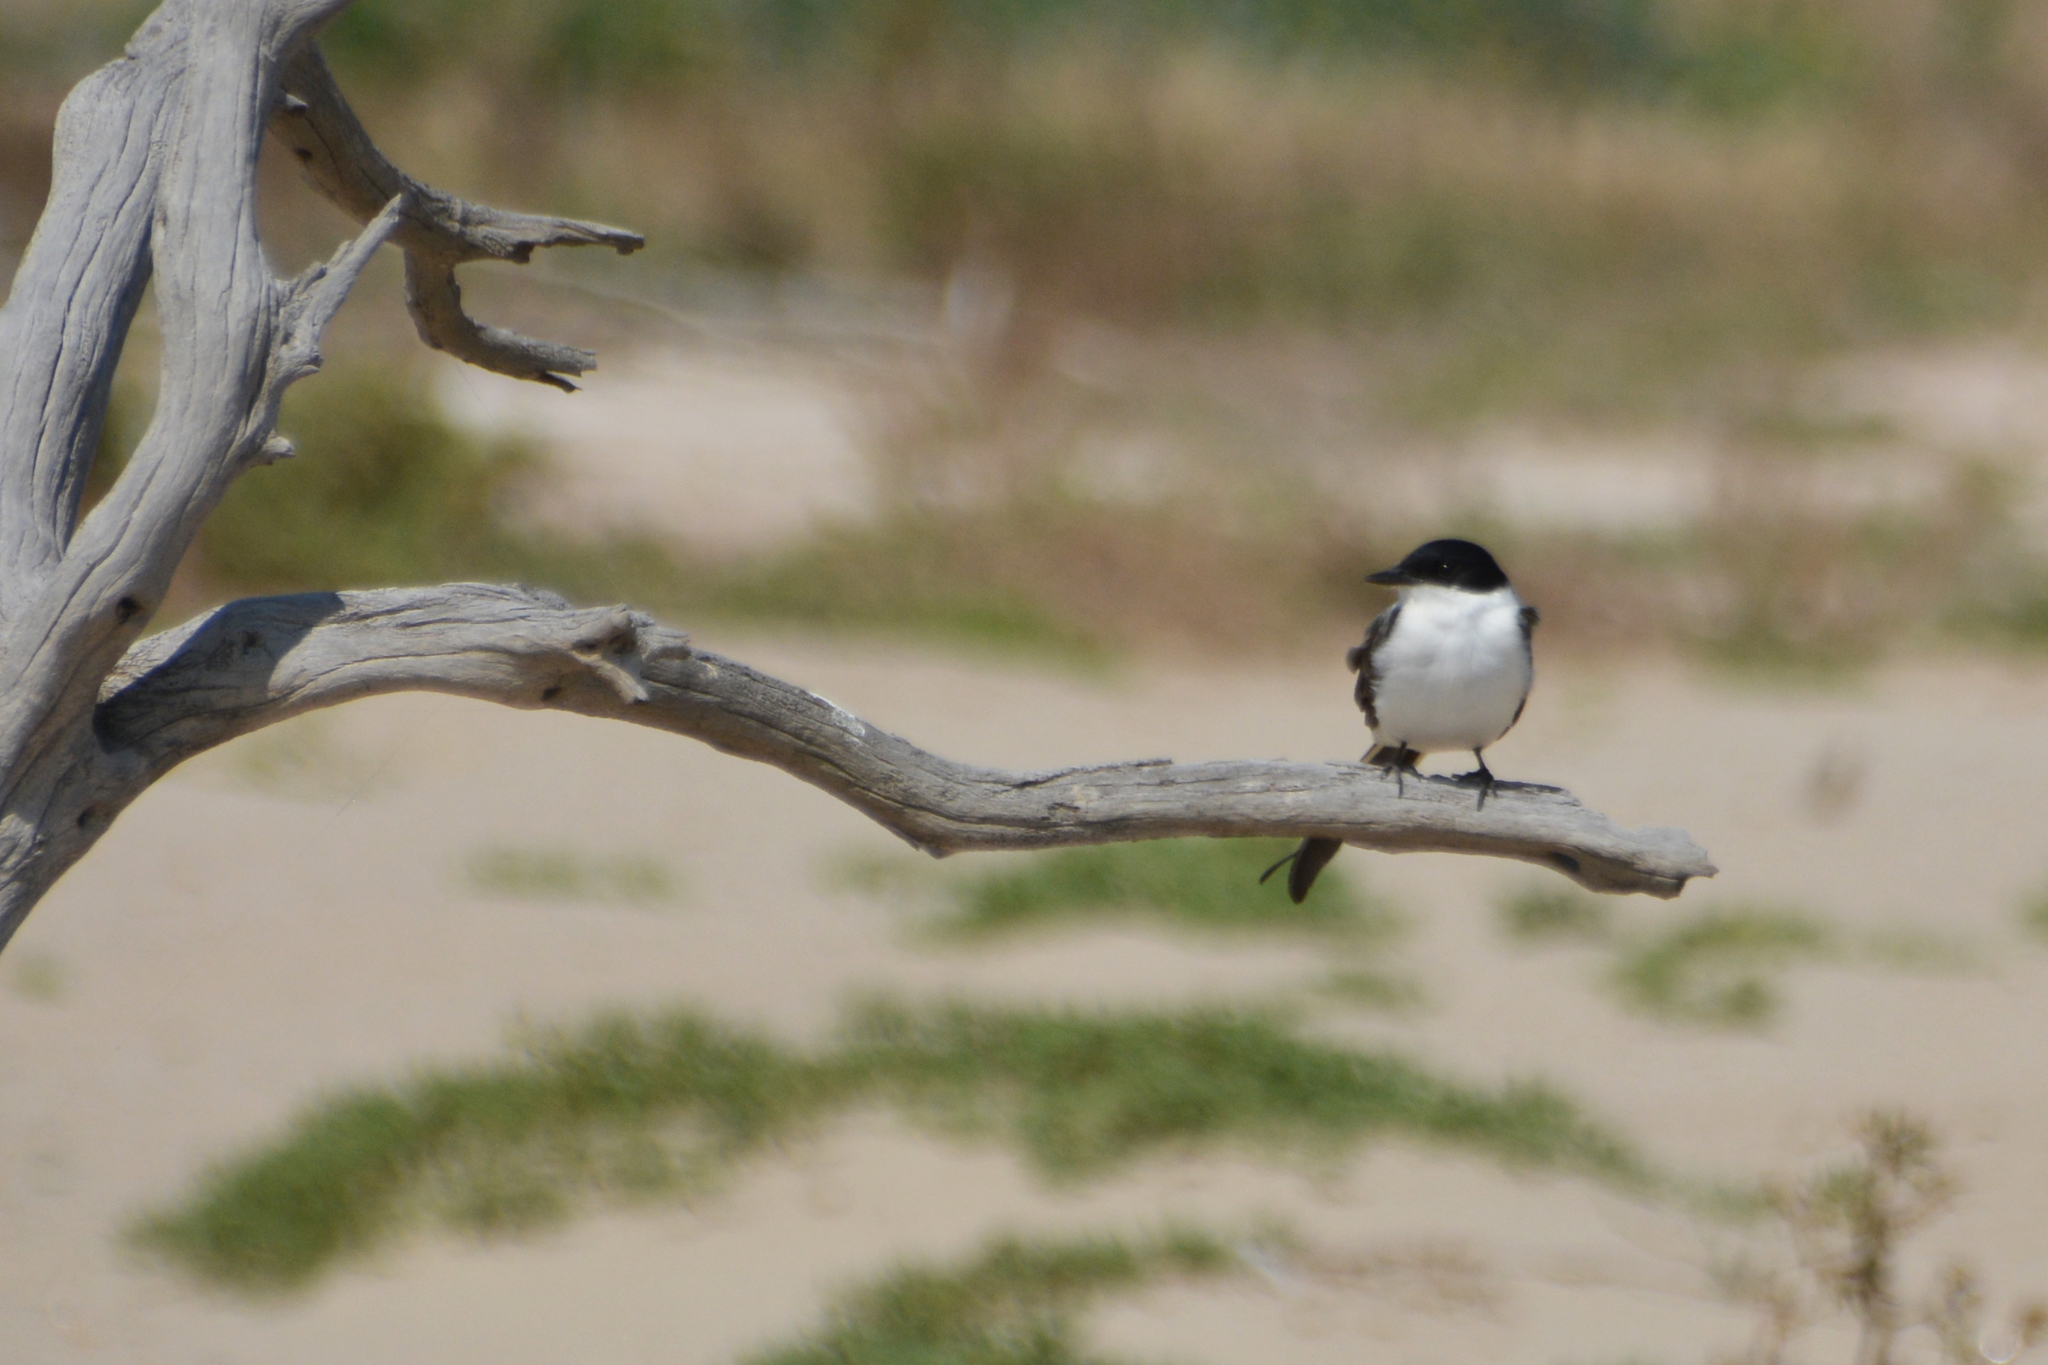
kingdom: Animalia
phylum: Chordata
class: Aves
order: Passeriformes
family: Tyrannidae
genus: Tyrannus
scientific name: Tyrannus savana
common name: Fork-tailed flycatcher
